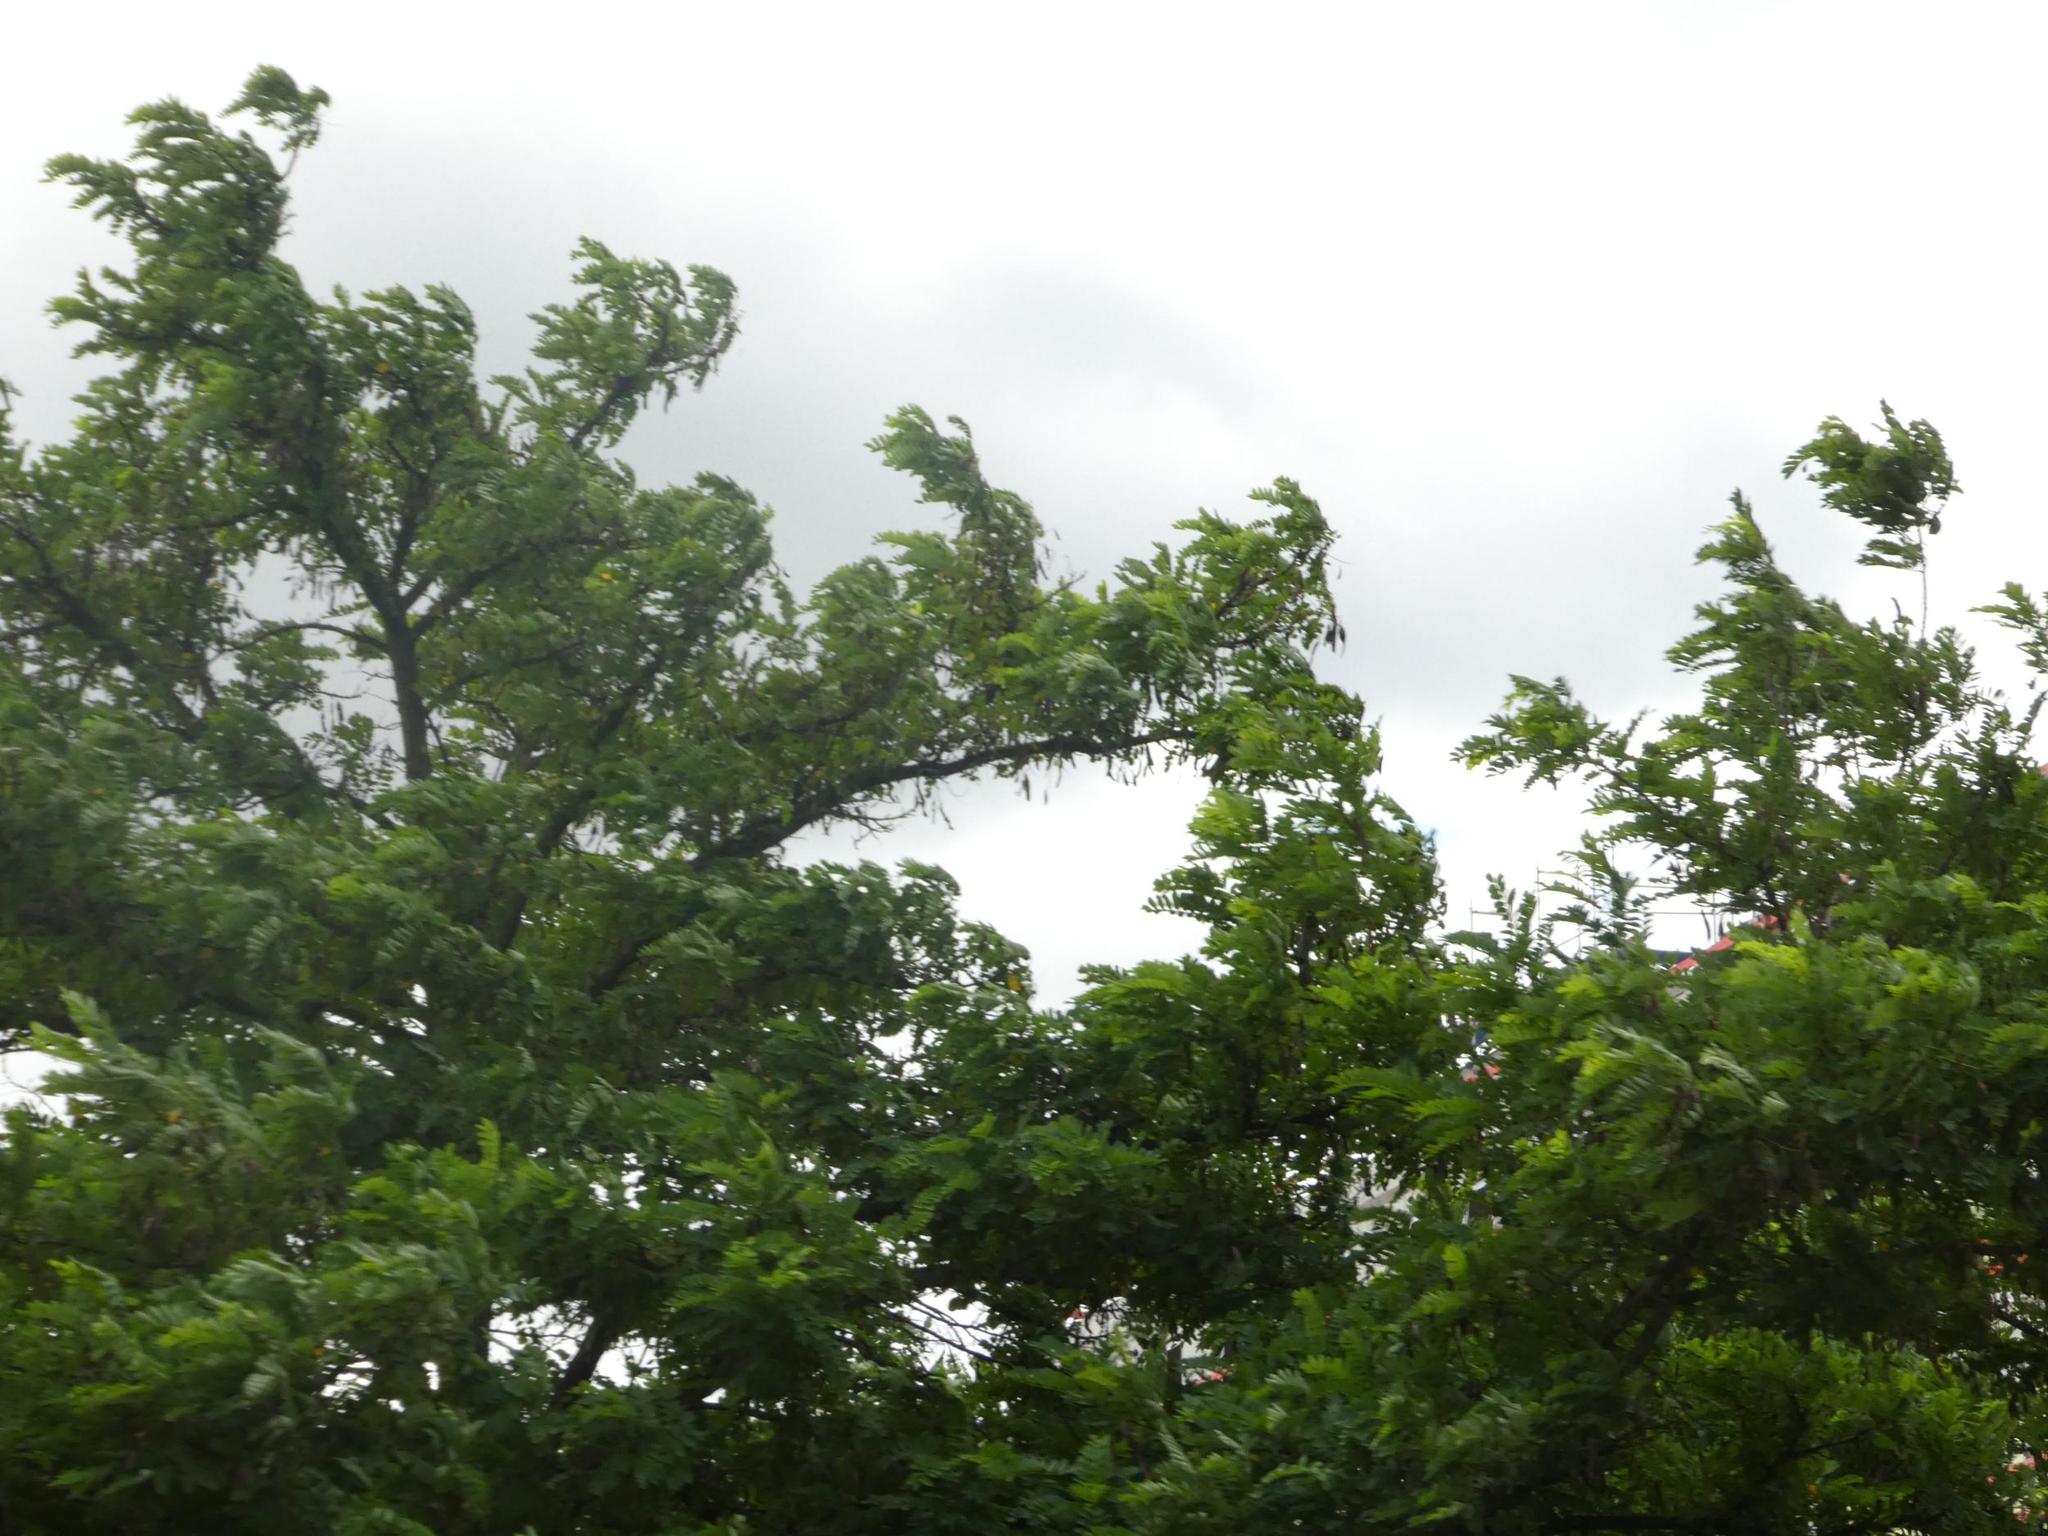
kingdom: Plantae
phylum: Tracheophyta
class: Magnoliopsida
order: Fabales
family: Fabaceae
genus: Robinia
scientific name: Robinia pseudoacacia
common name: Black locust
